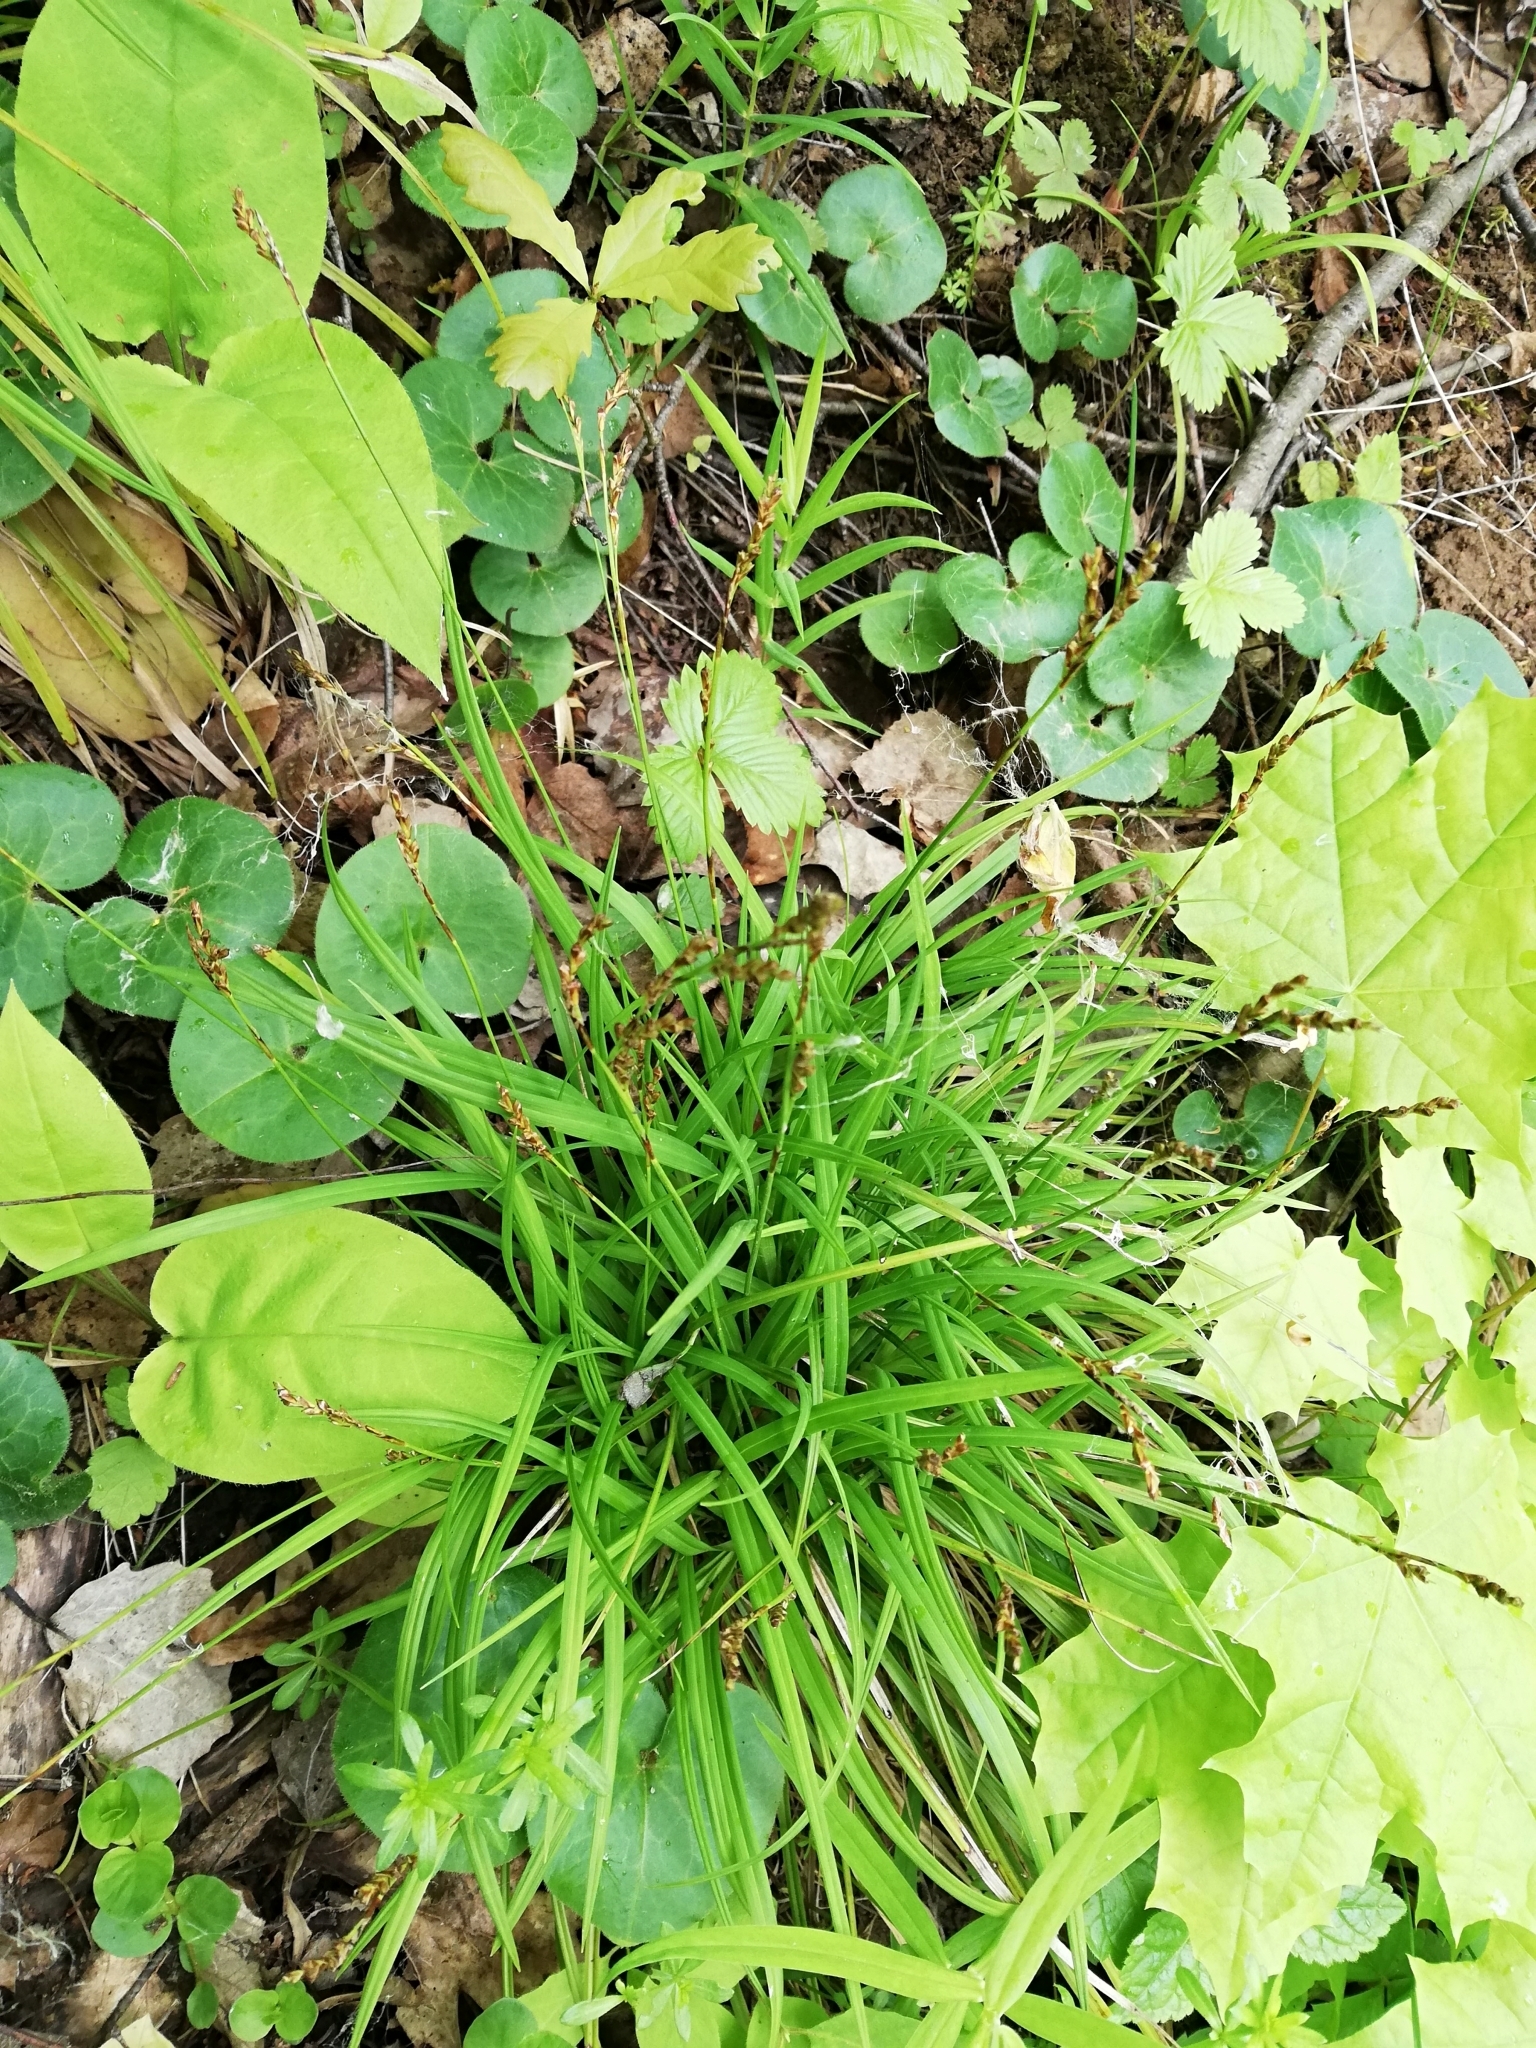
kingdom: Plantae
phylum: Tracheophyta
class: Liliopsida
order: Poales
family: Cyperaceae
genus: Carex
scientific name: Carex digitata
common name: Fingered sedge
